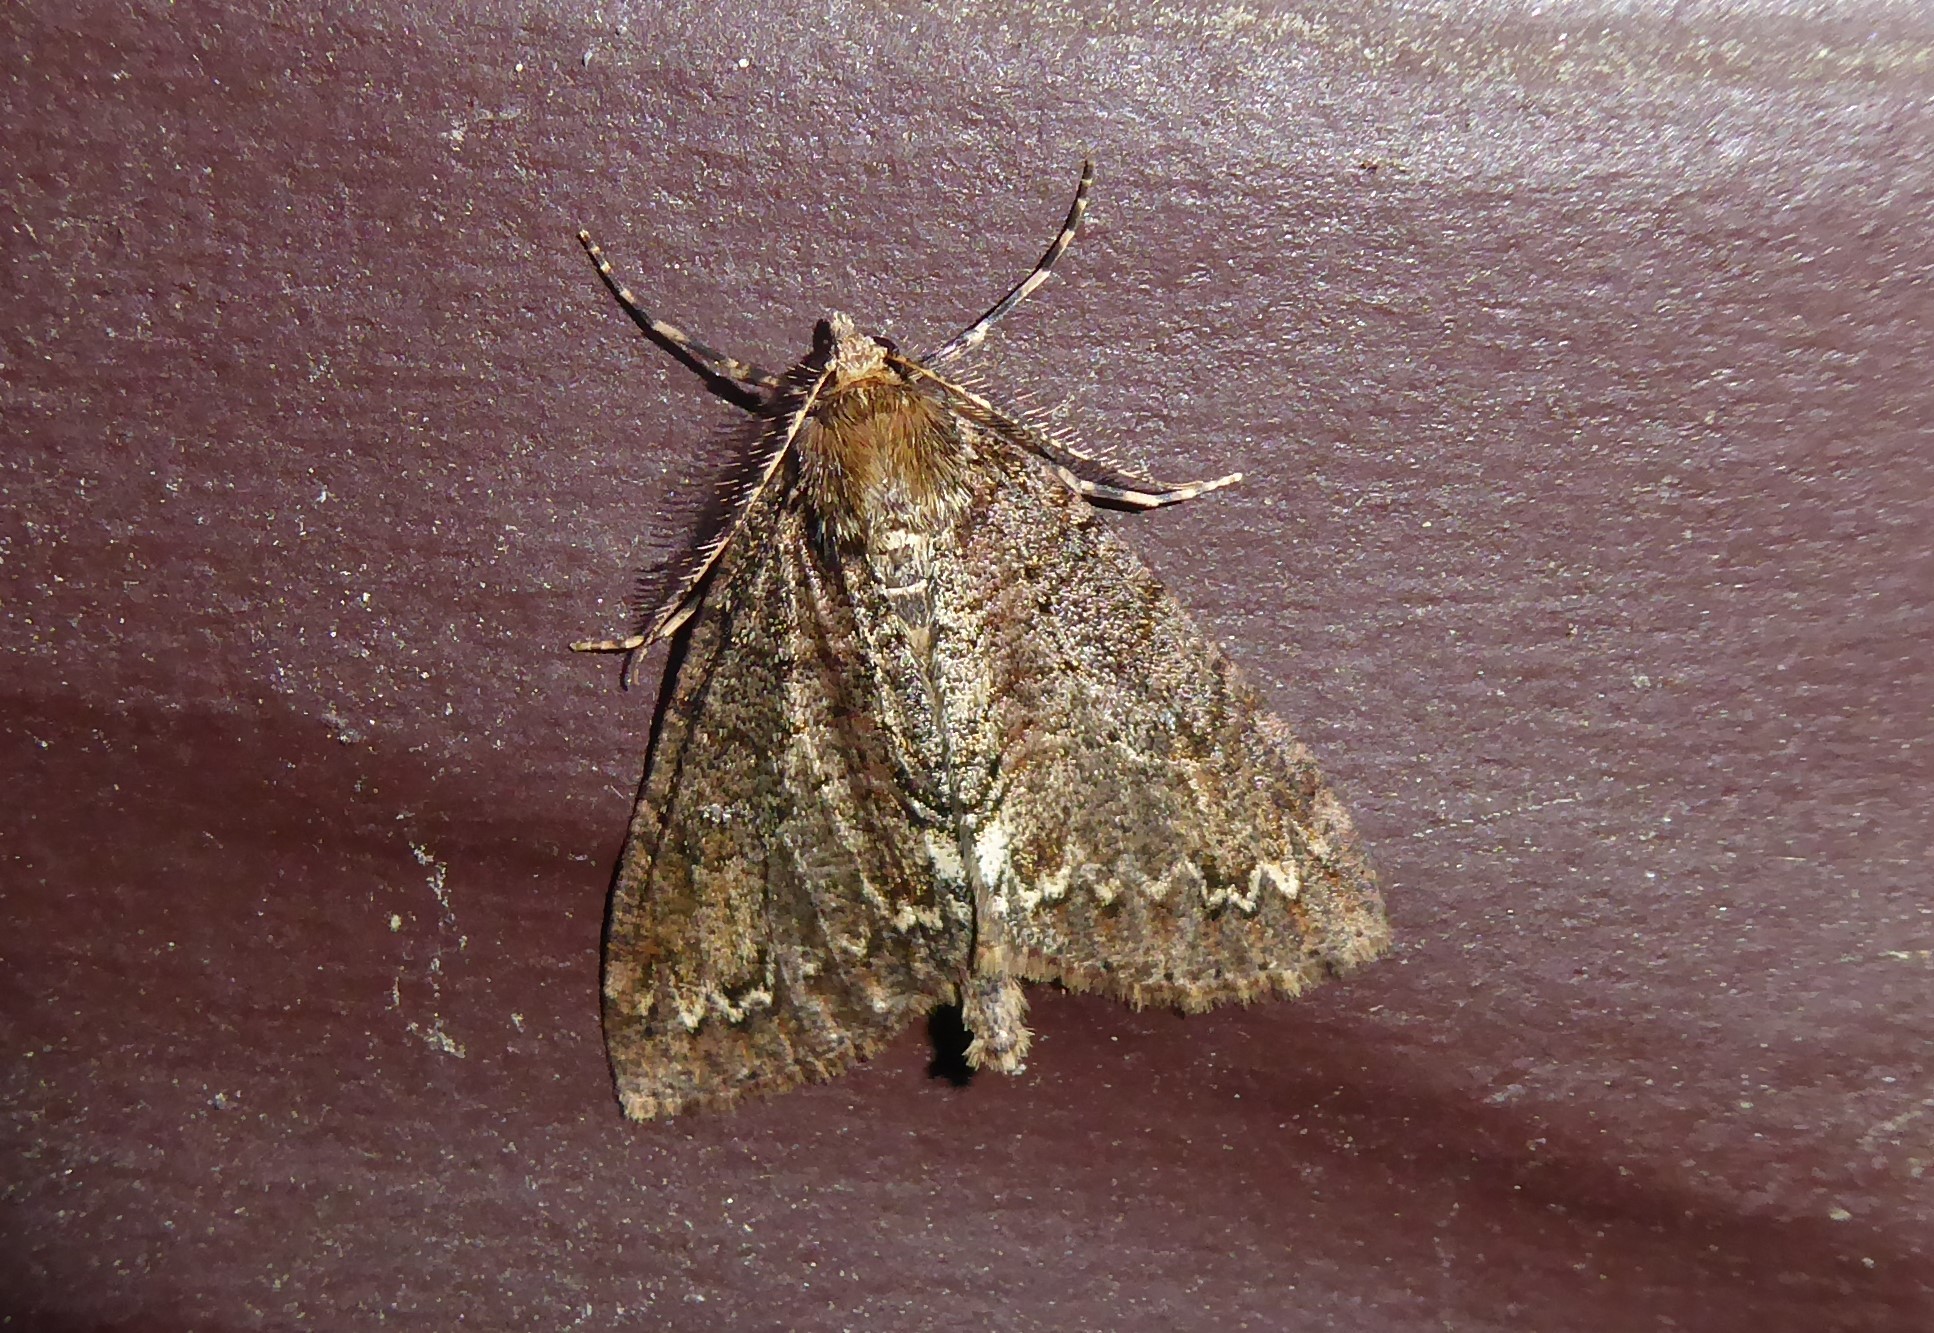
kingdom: Animalia
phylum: Arthropoda
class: Insecta
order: Lepidoptera
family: Geometridae
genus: Pseudocoremia
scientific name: Pseudocoremia suavis
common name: Common forest looper
